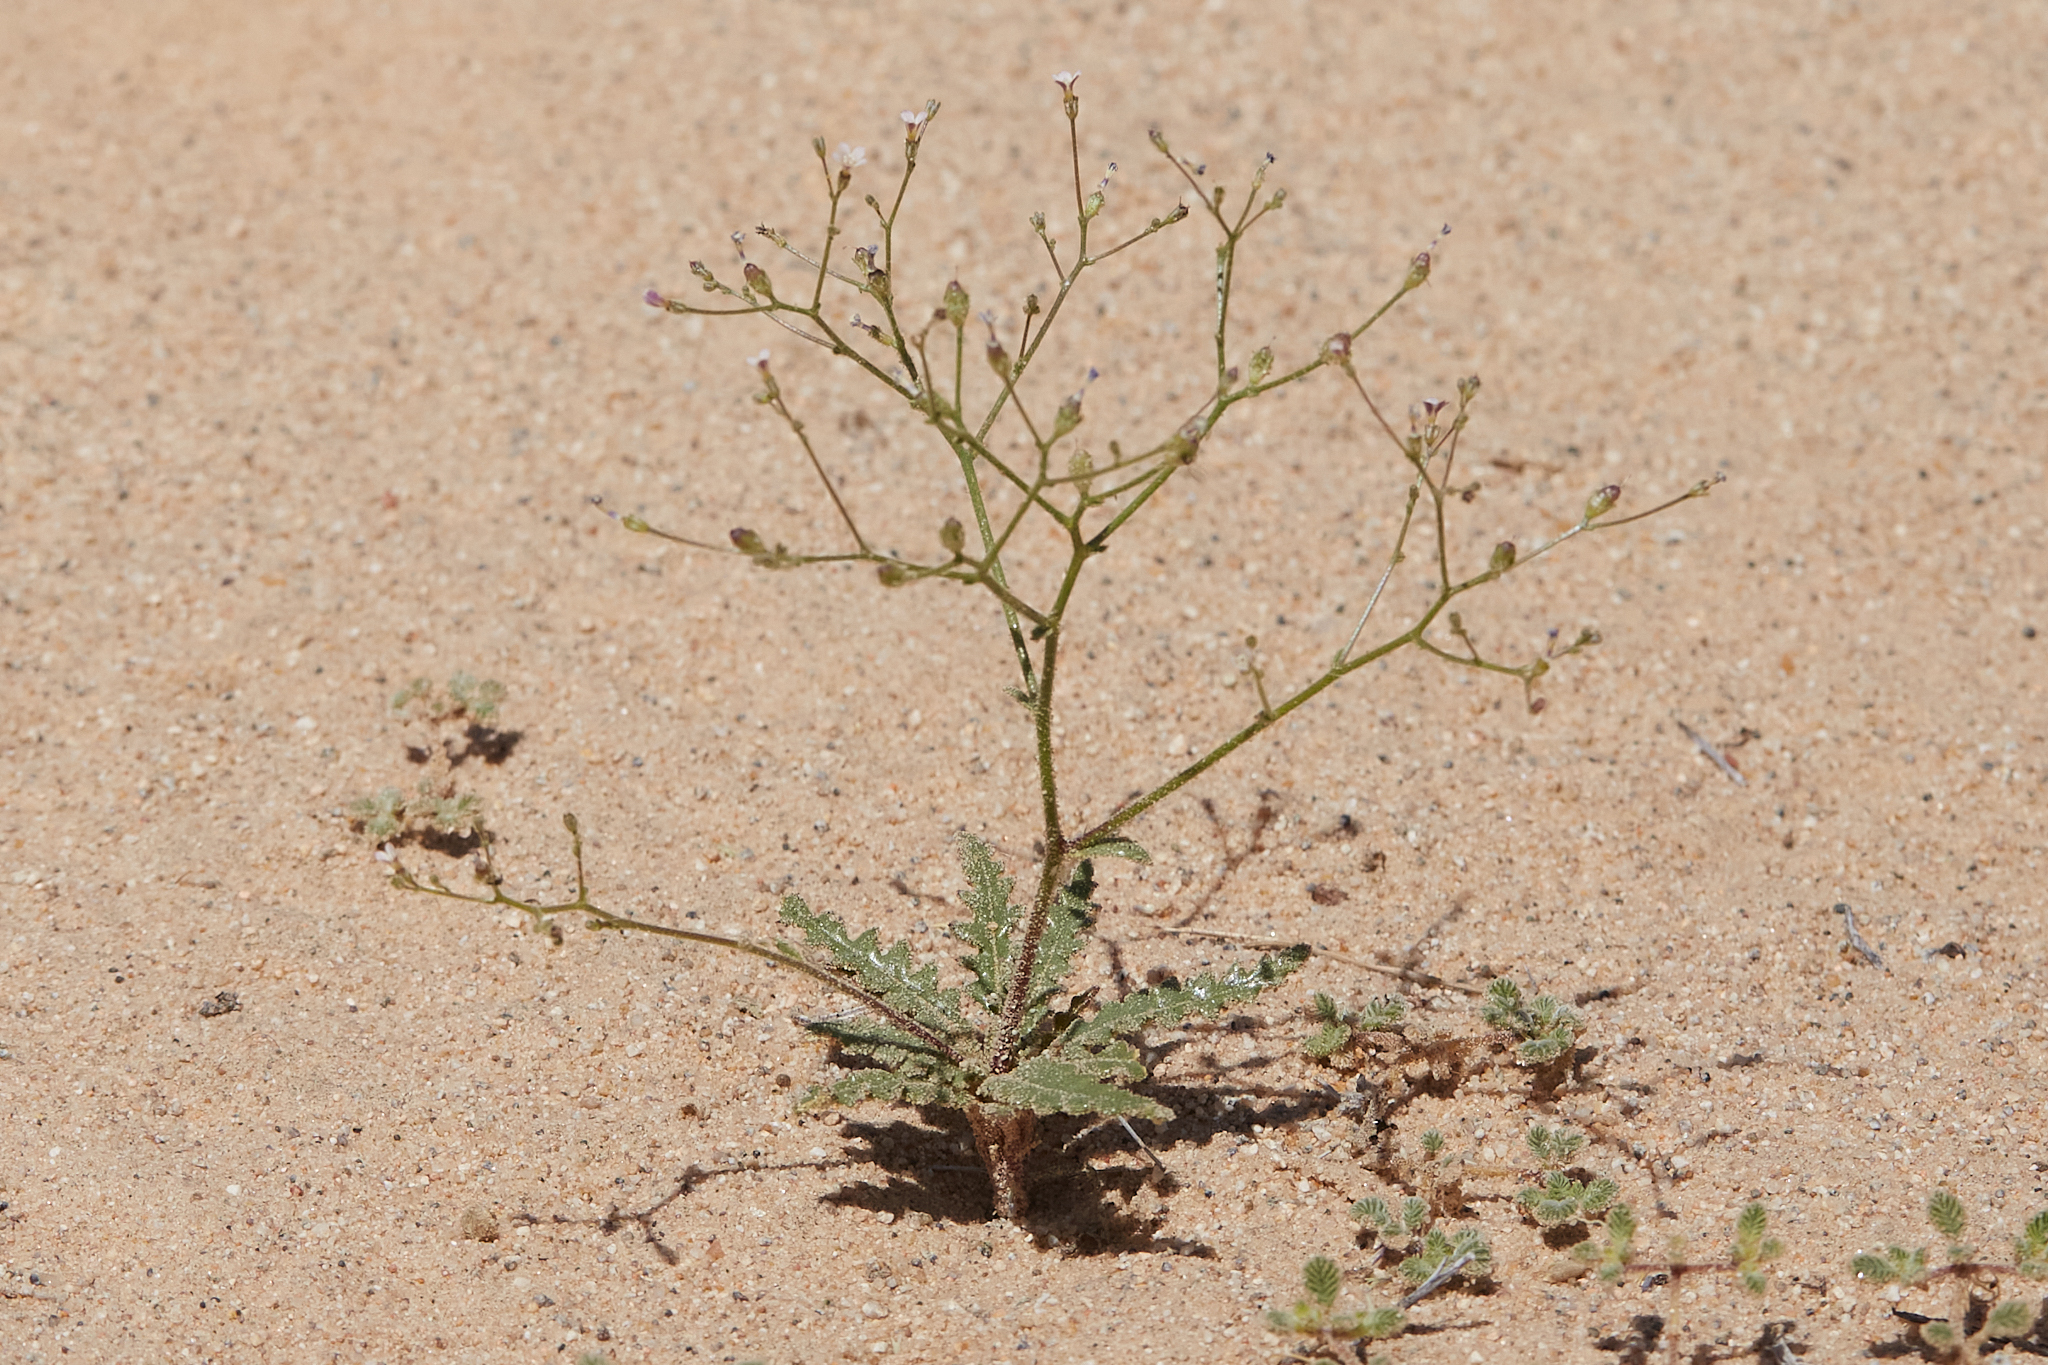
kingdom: Plantae
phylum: Tracheophyta
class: Magnoliopsida
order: Ericales
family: Polemoniaceae
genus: Aliciella
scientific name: Aliciella leptomeria
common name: Sand gilia
